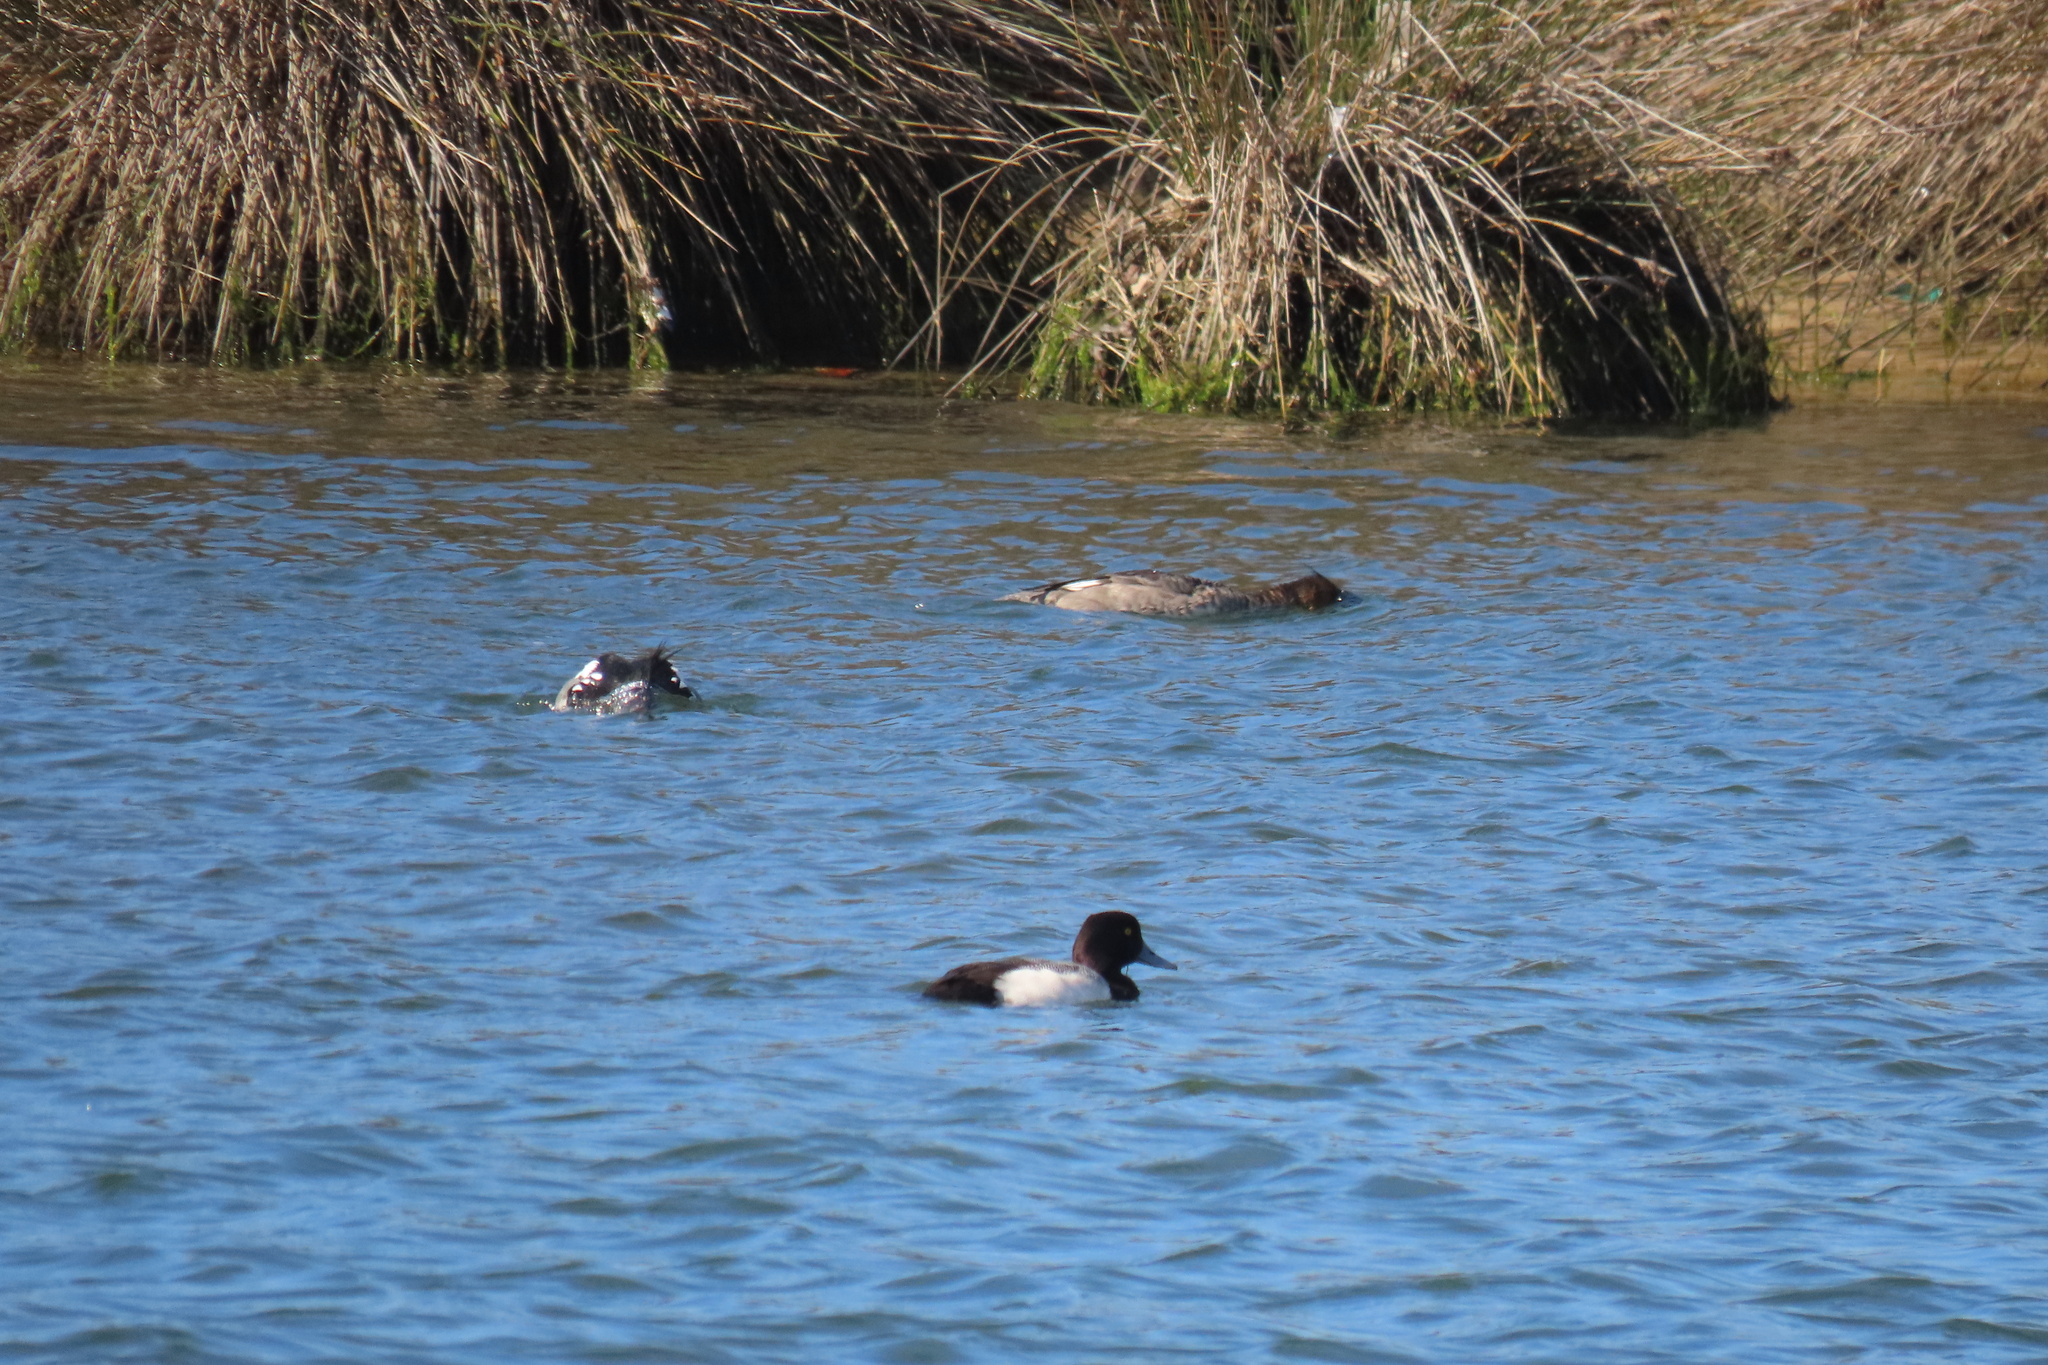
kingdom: Animalia
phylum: Chordata
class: Aves
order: Anseriformes
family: Anatidae
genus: Aythya
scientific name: Aythya marila
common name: Greater scaup
